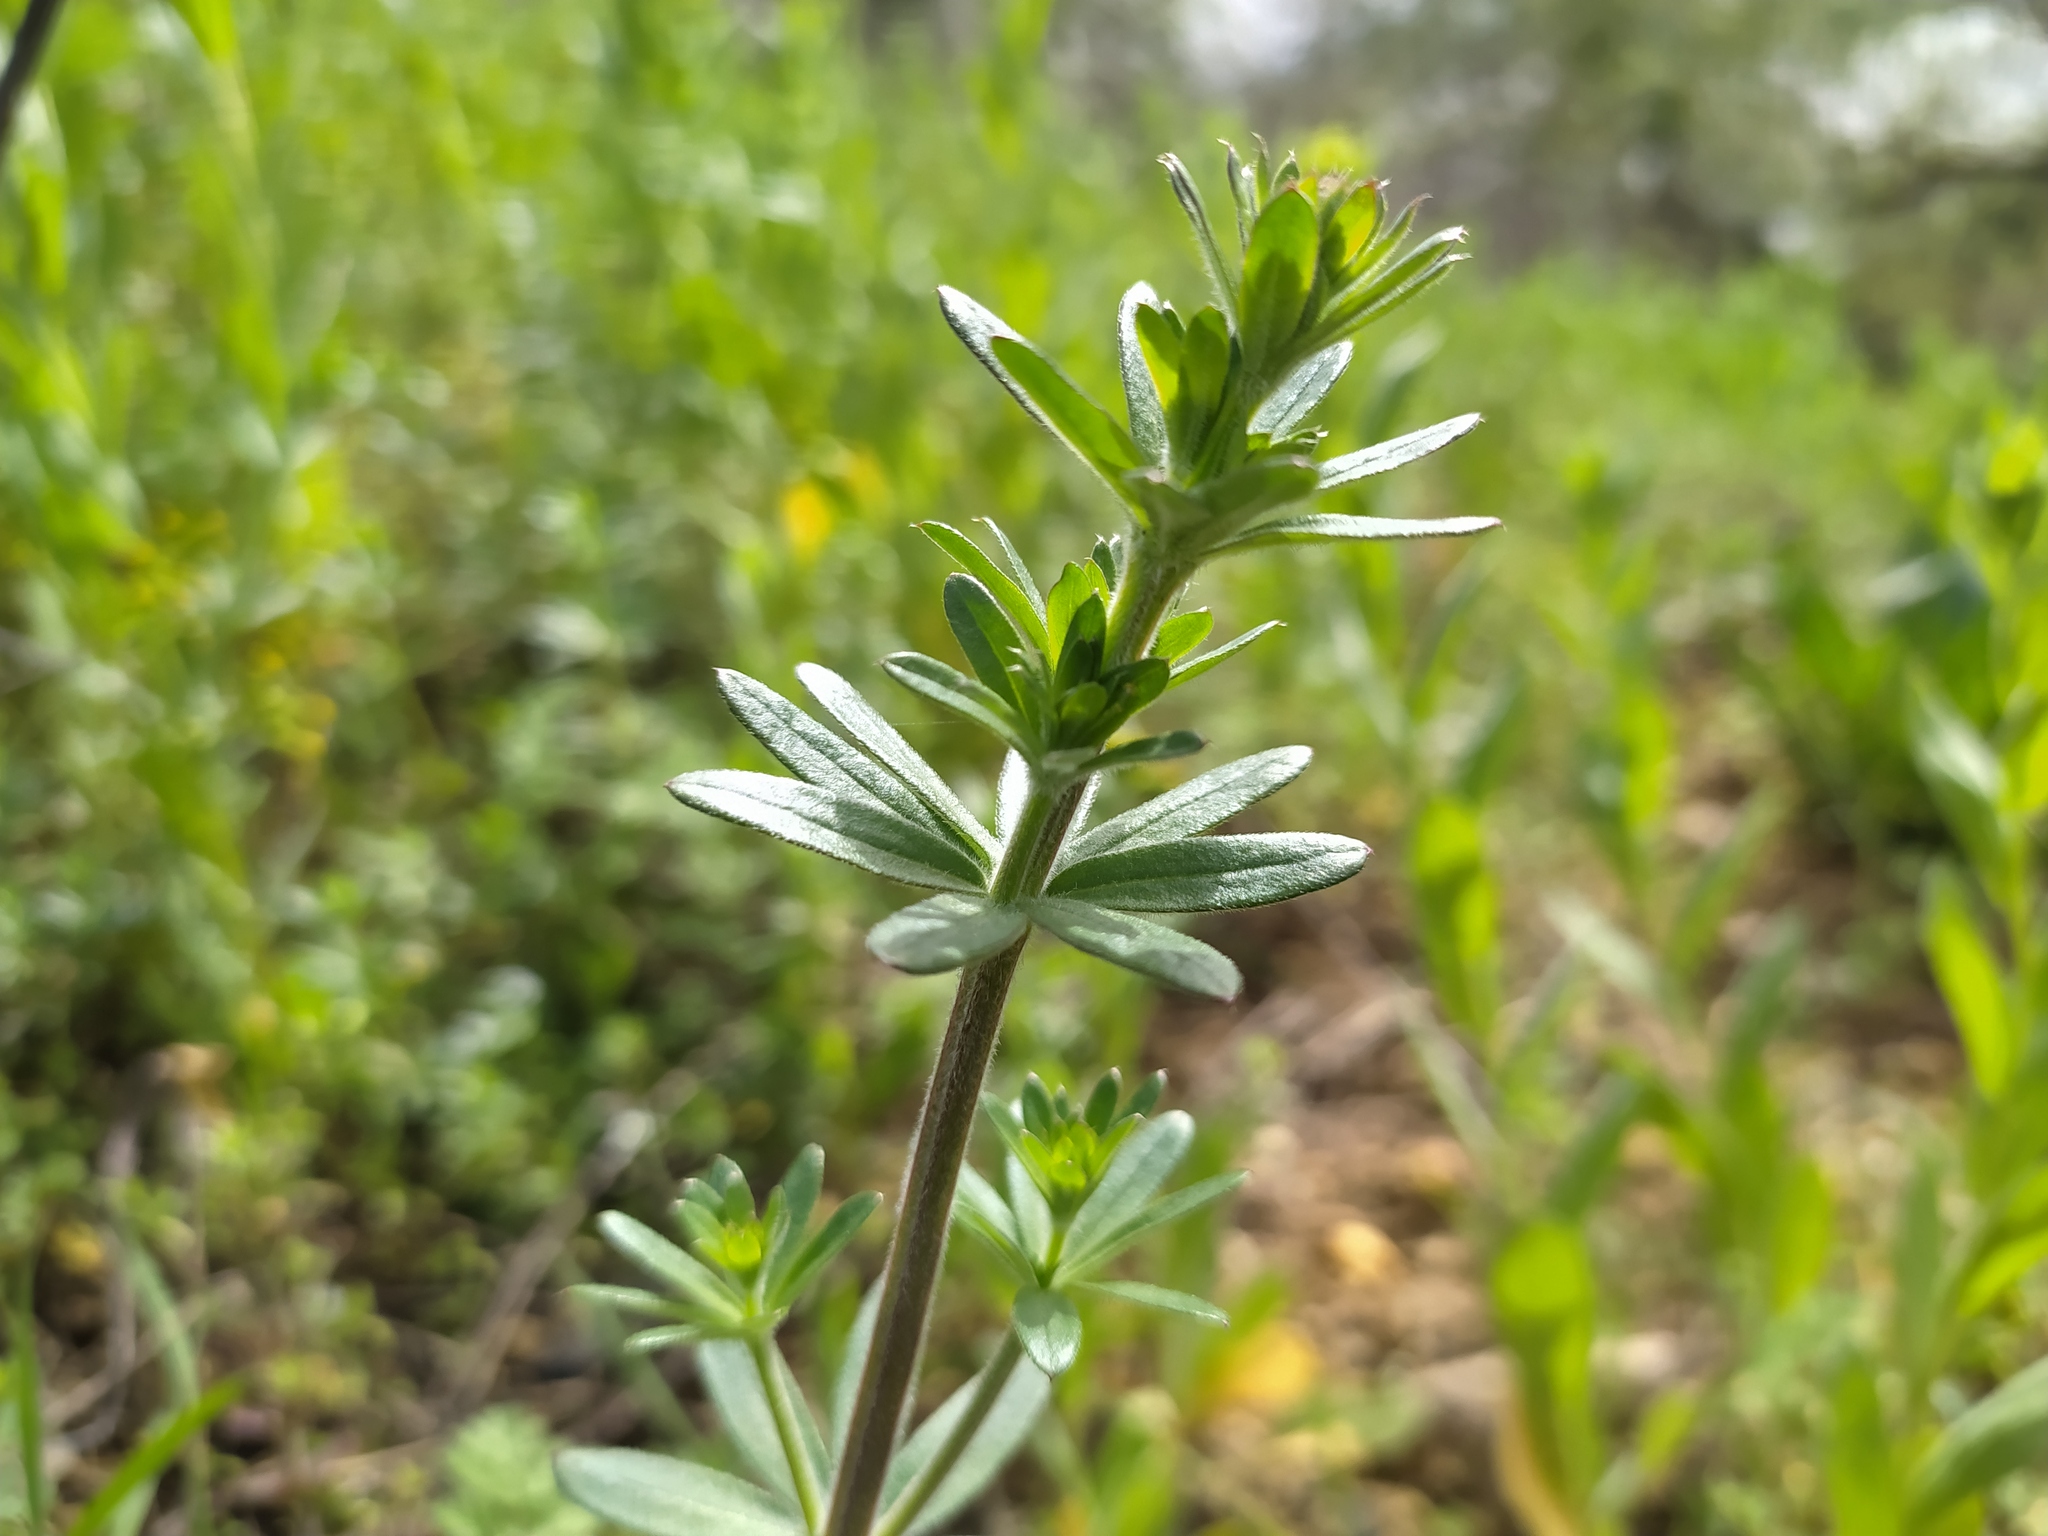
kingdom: Plantae
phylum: Tracheophyta
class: Magnoliopsida
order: Gentianales
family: Rubiaceae
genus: Galium
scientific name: Galium album
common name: White bedstraw
